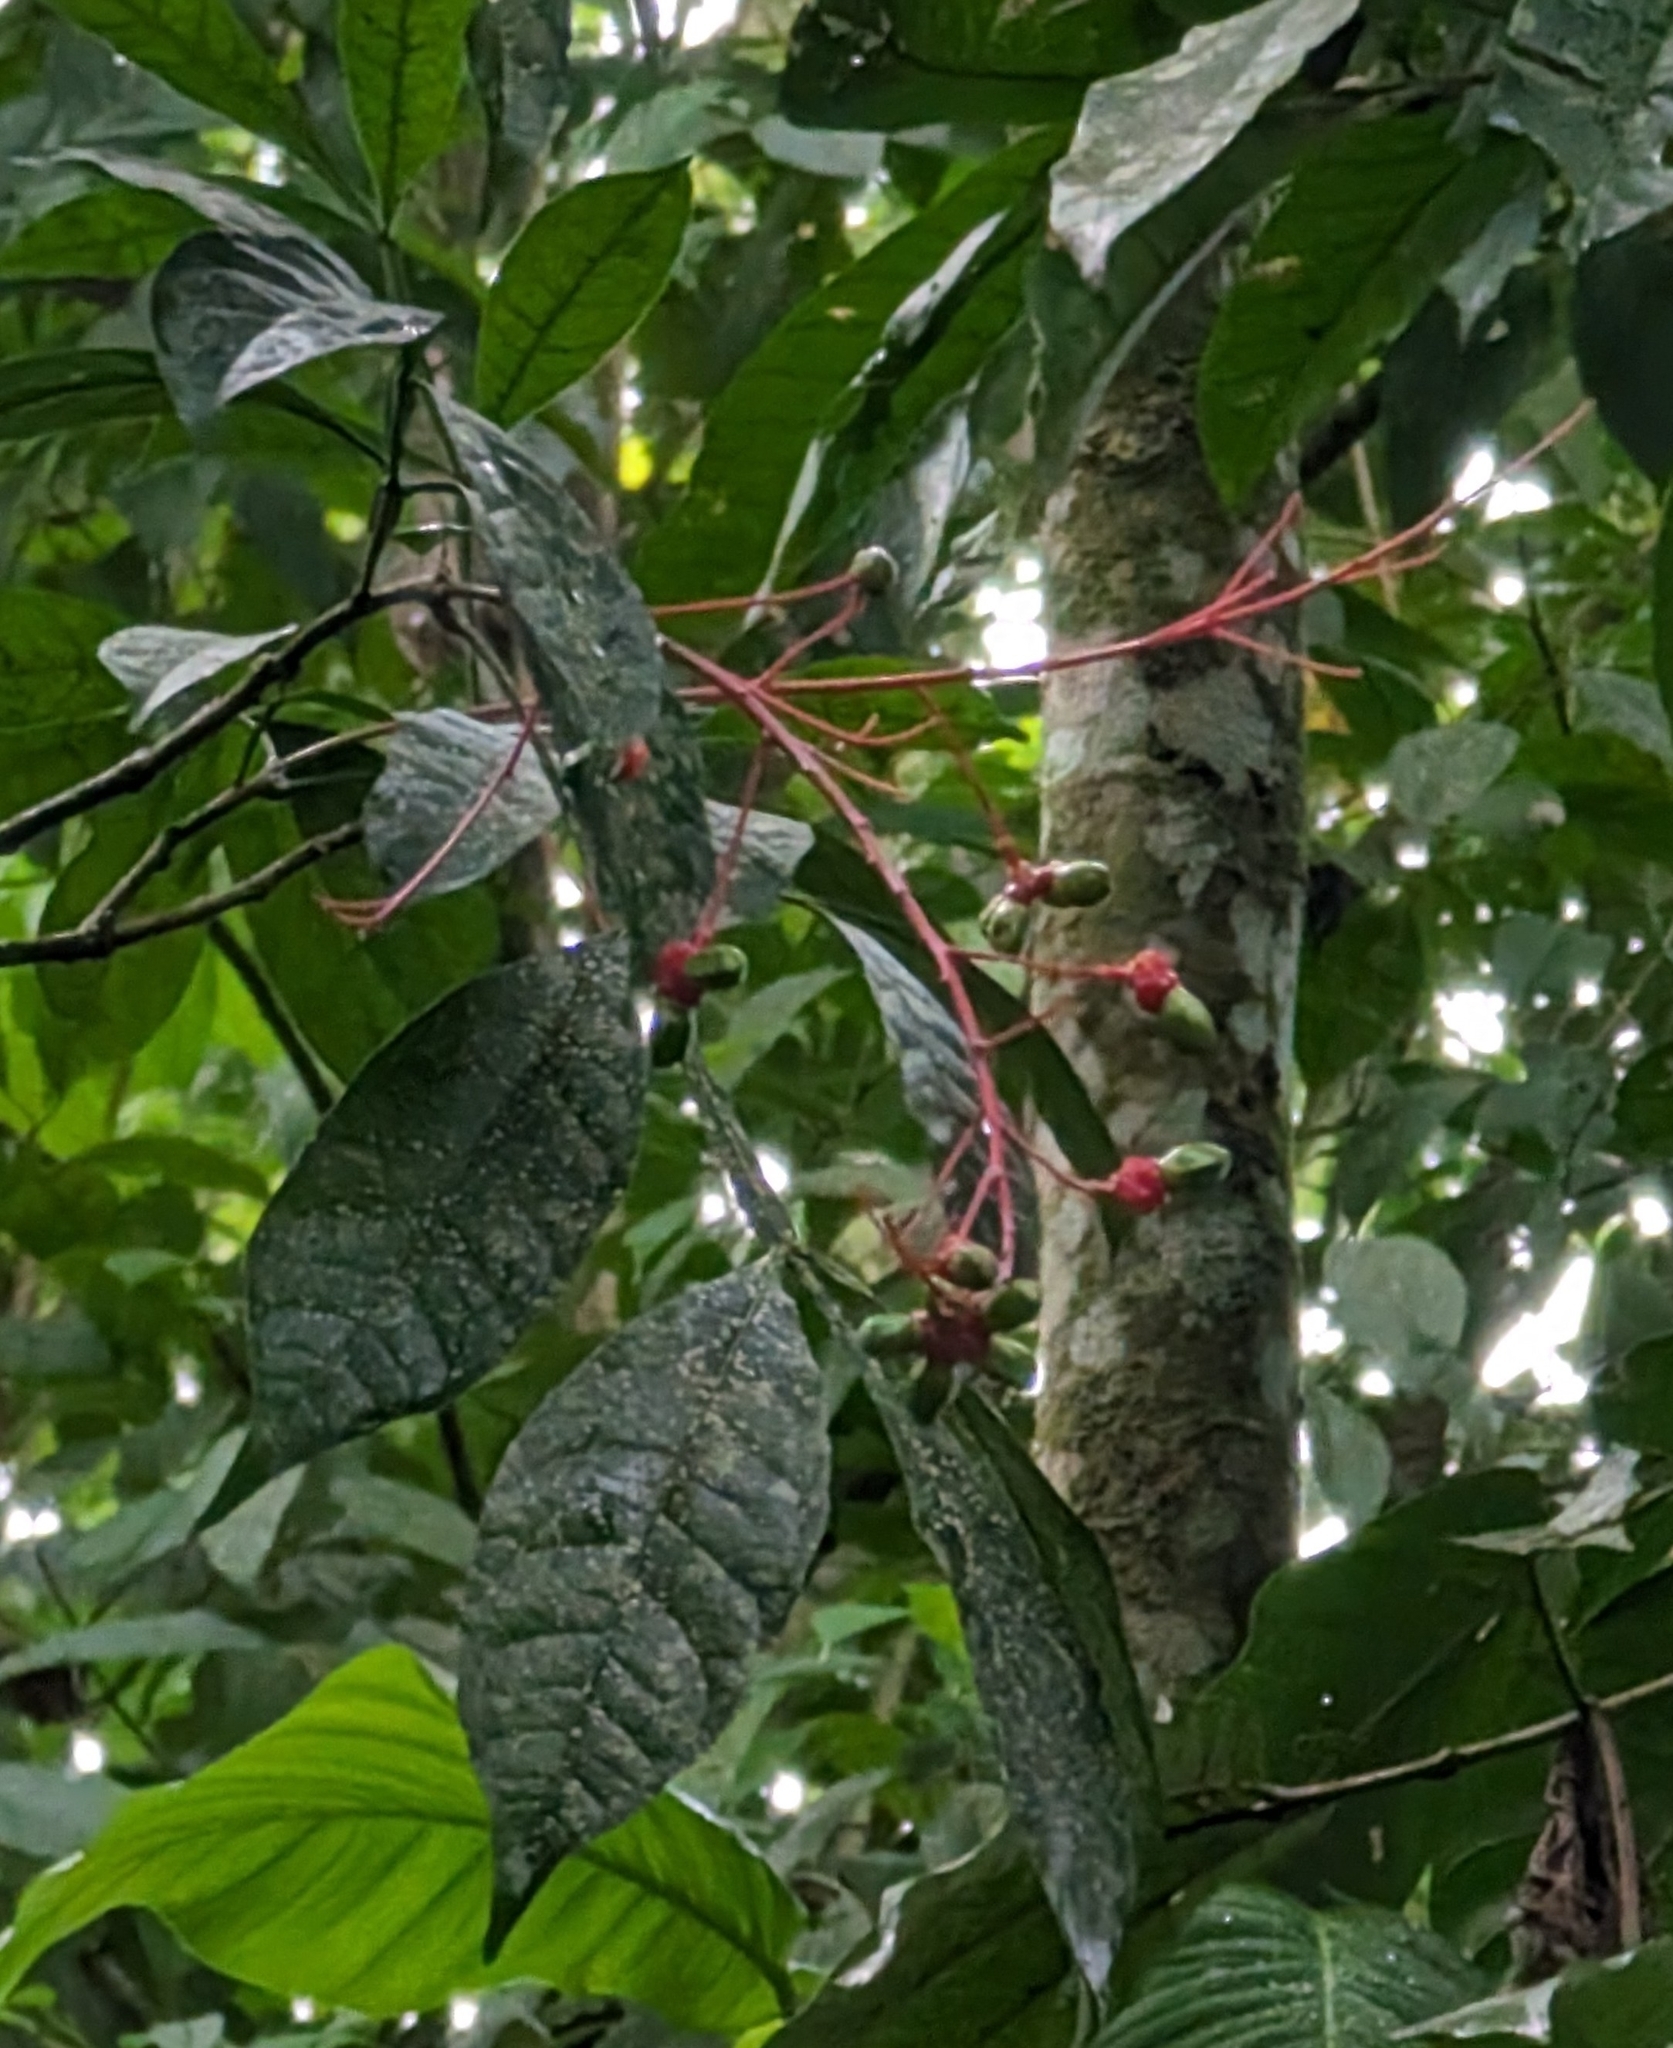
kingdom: Plantae
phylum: Tracheophyta
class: Magnoliopsida
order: Sapindales
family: Simaroubaceae
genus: Quassia
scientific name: Quassia amara
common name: Quassia
